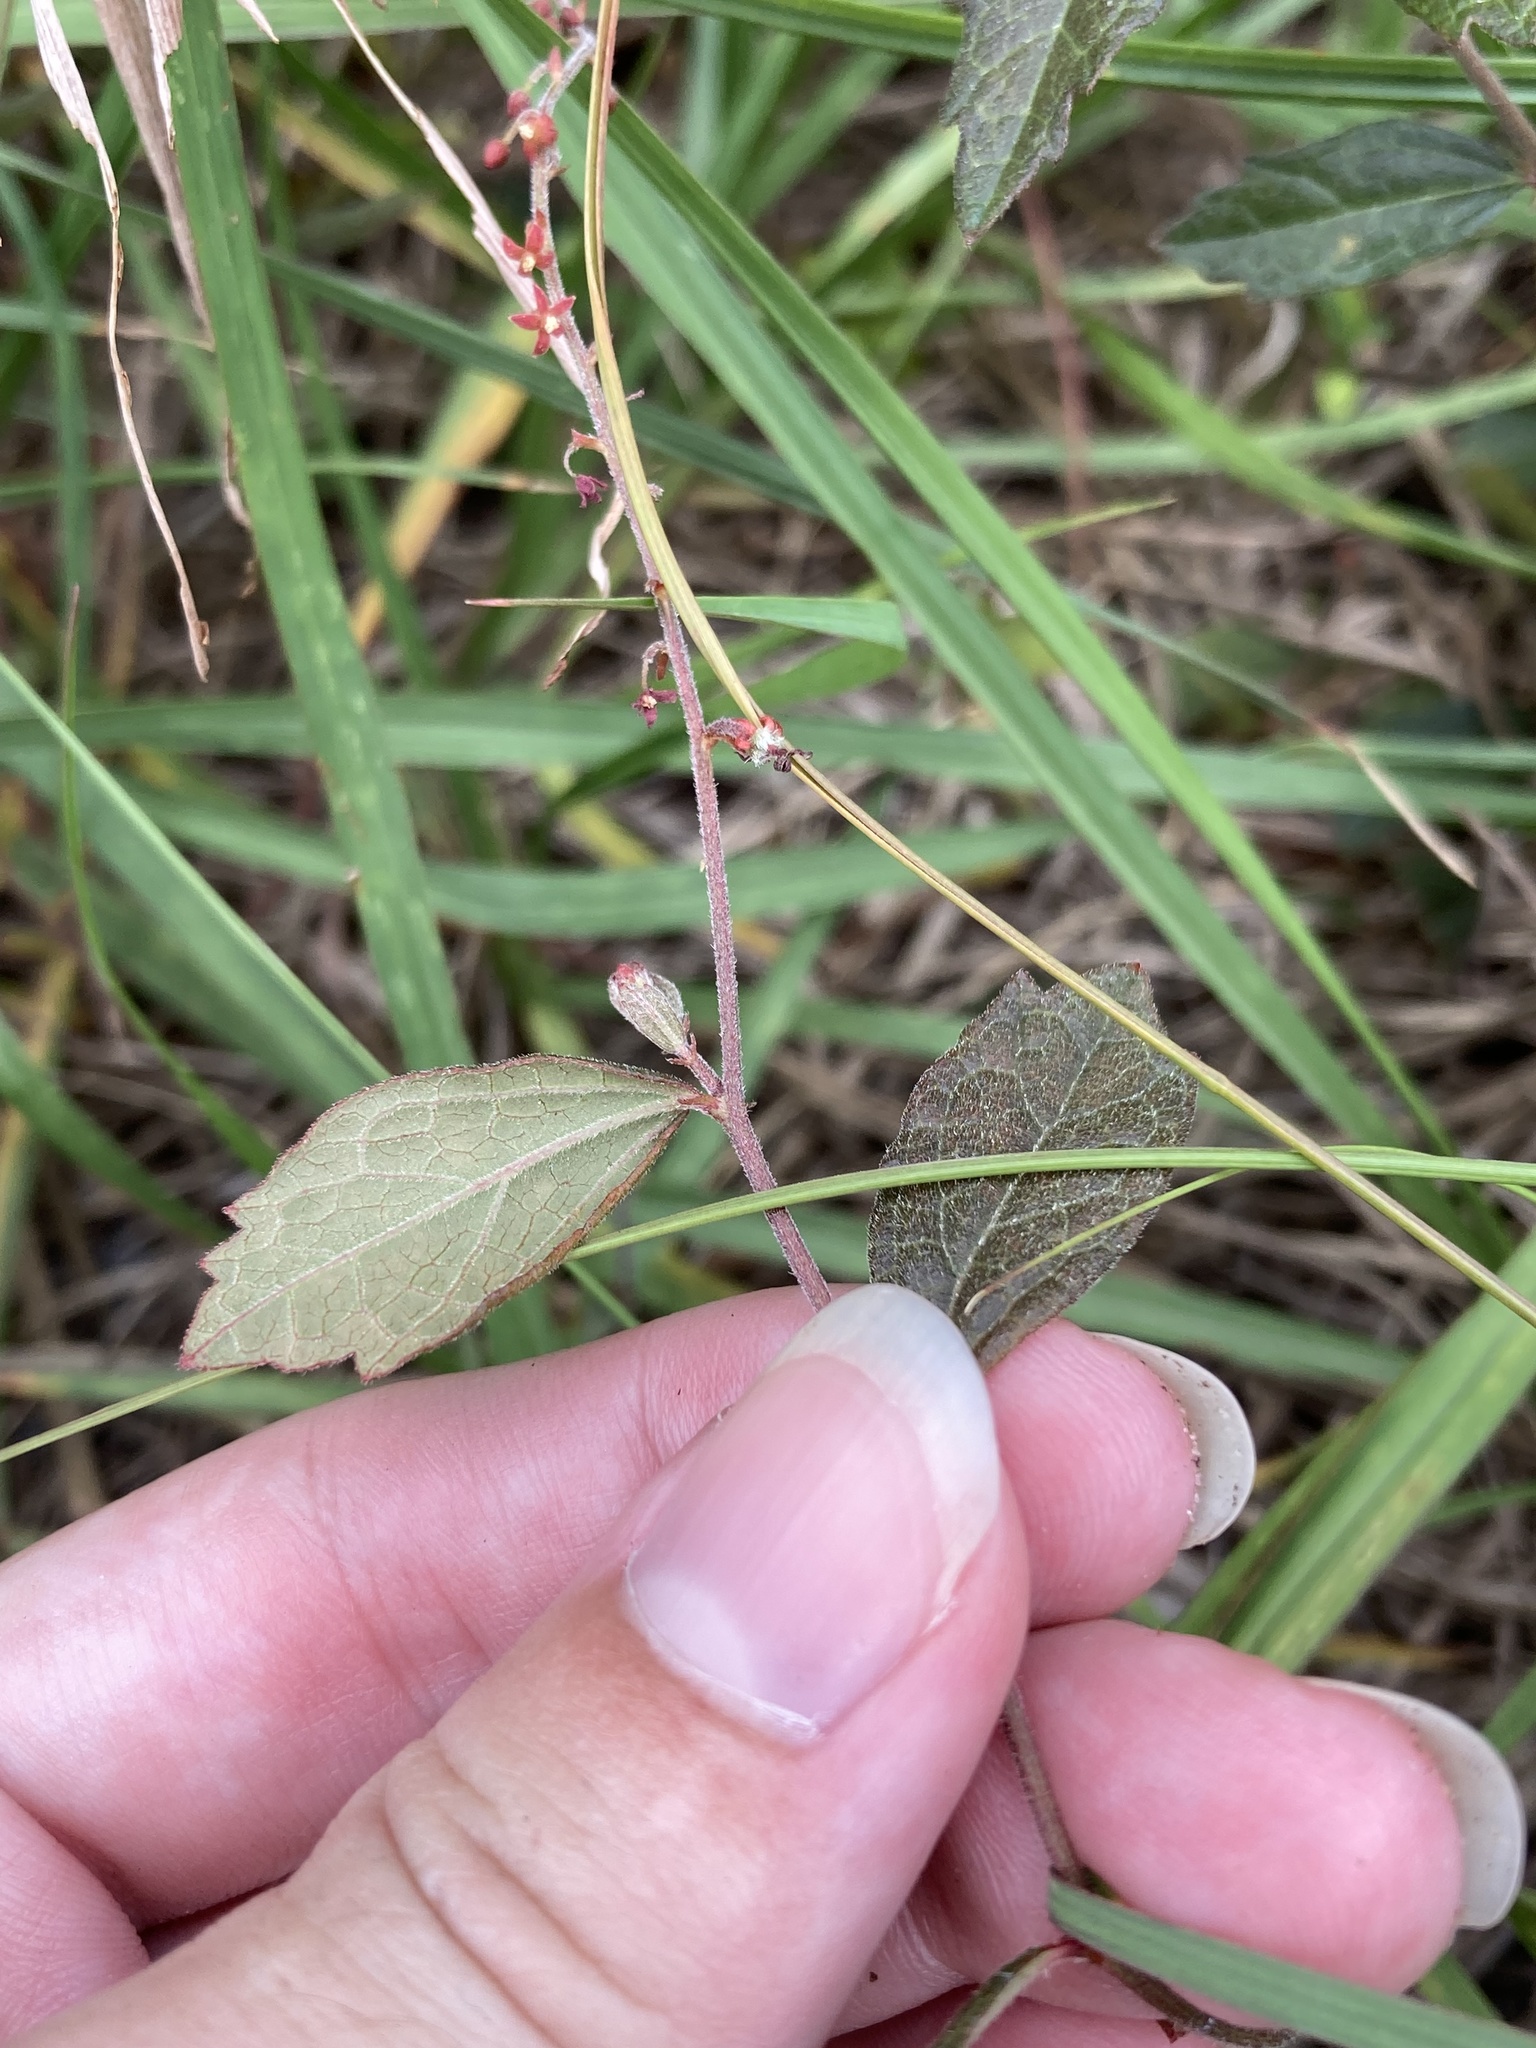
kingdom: Plantae
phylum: Tracheophyta
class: Magnoliopsida
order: Malpighiales
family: Euphorbiaceae
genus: Tragia
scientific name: Tragia urens
